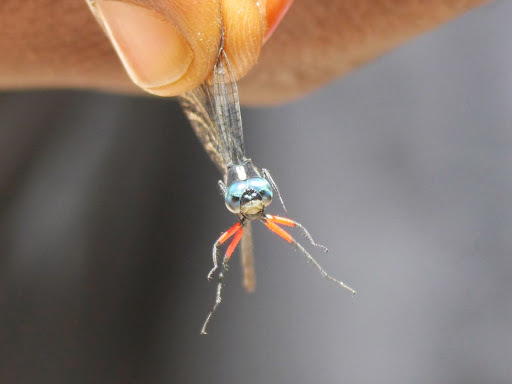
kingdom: Animalia
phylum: Arthropoda
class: Insecta
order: Odonata
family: Libellulidae
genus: Oxythemis
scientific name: Oxythemis phoenicosceles
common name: Pepperpants
